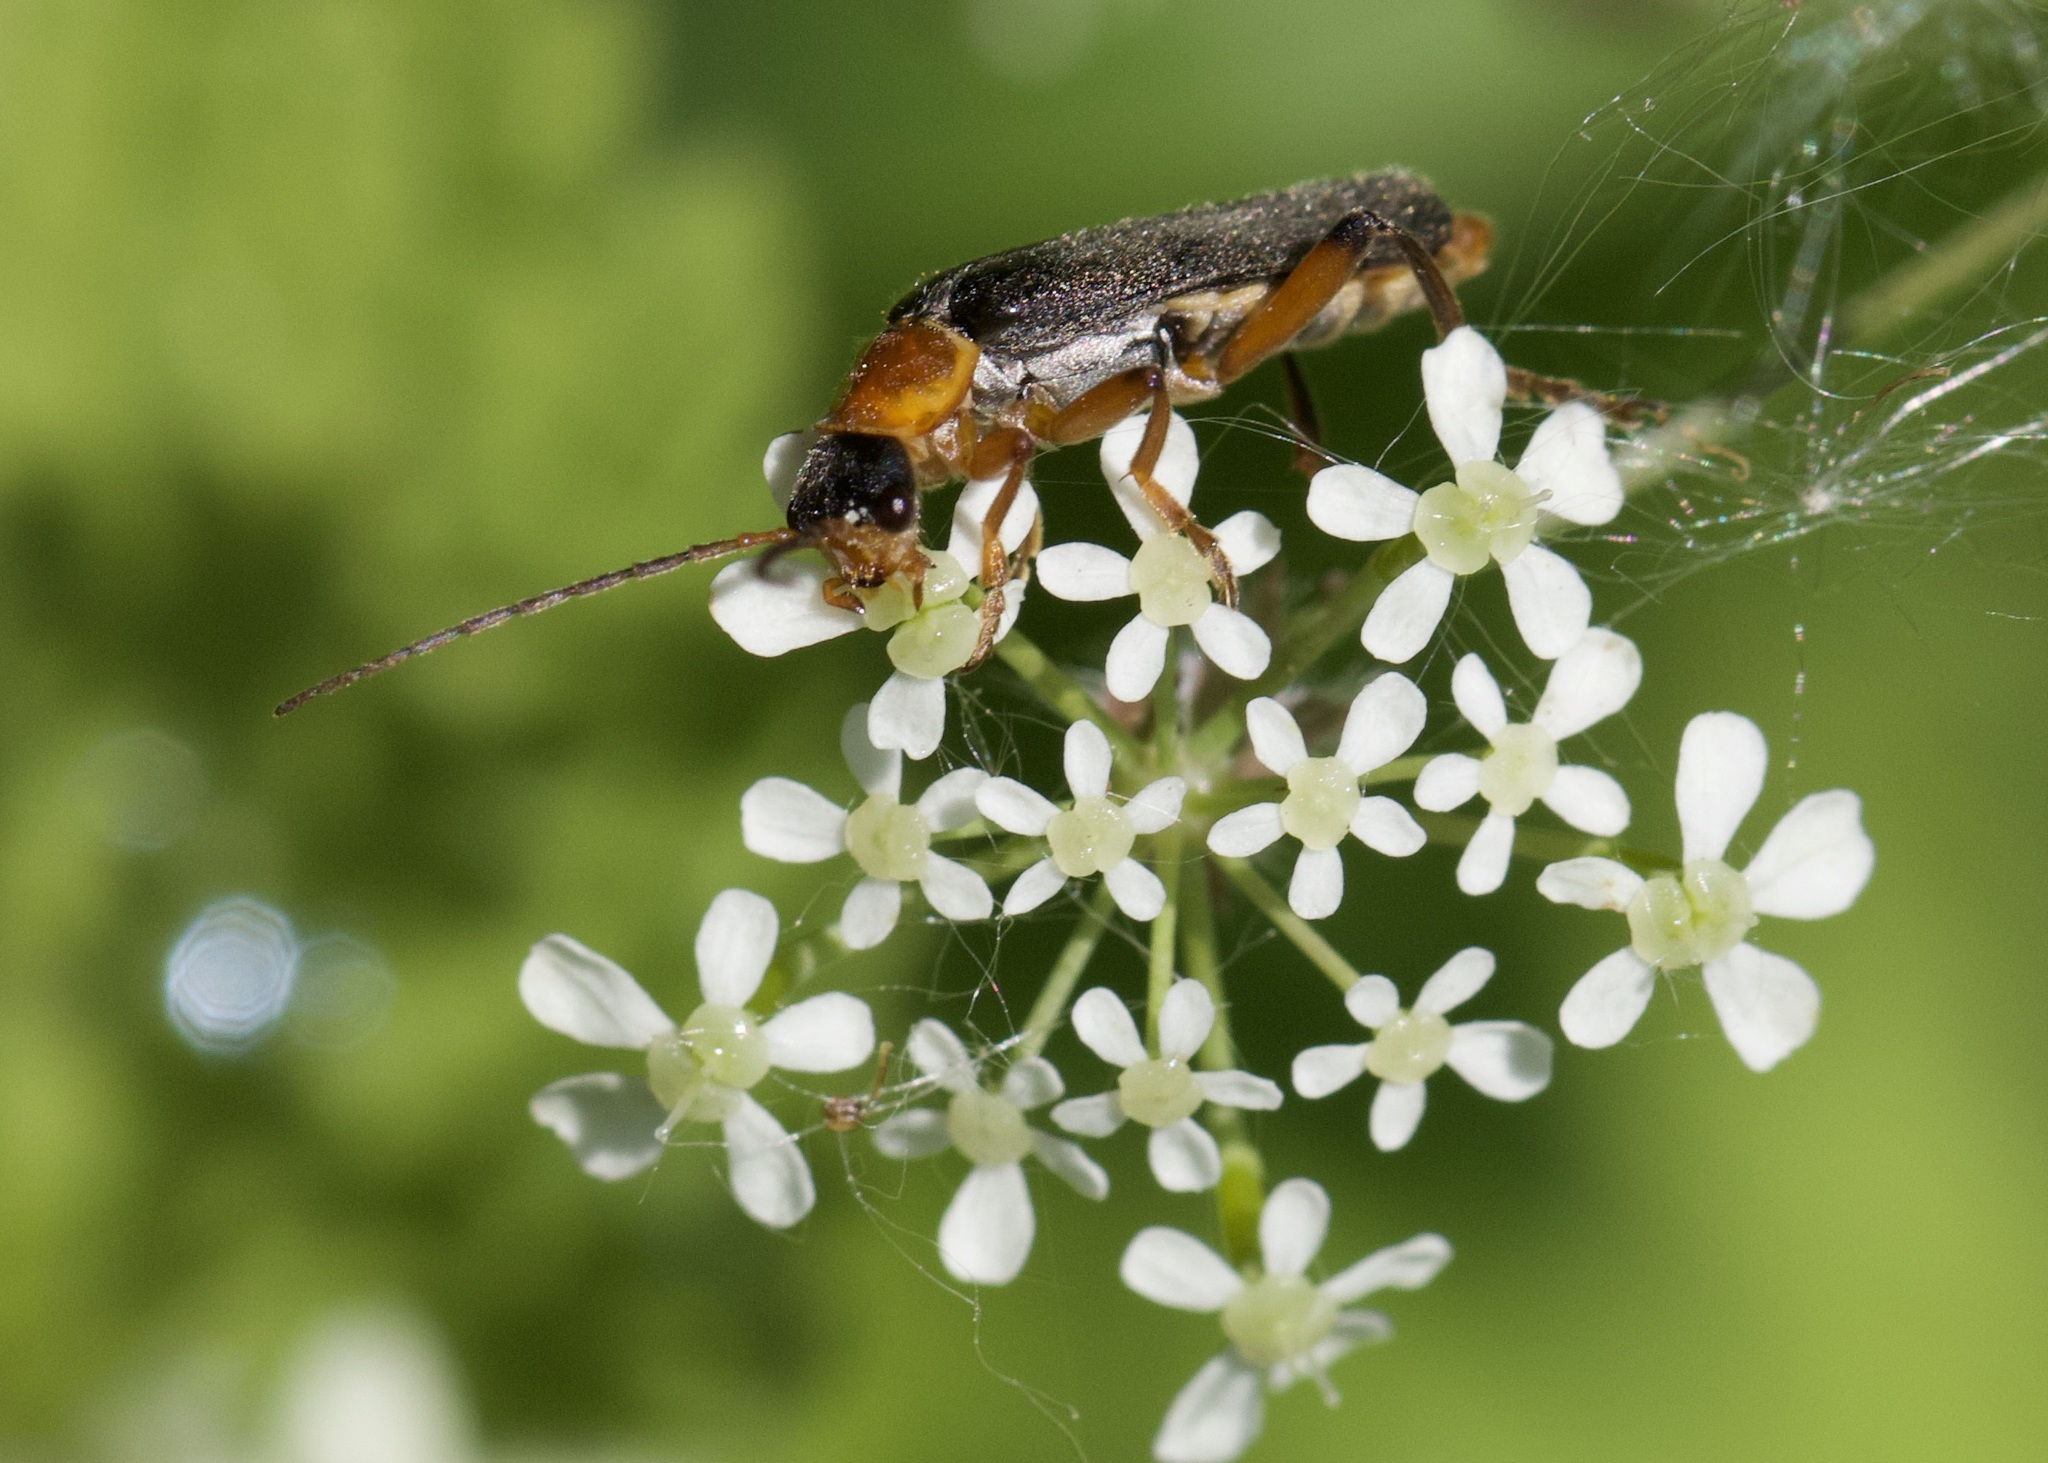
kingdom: Animalia
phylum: Arthropoda
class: Insecta
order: Coleoptera
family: Cantharidae
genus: Cantharis
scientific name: Cantharis nigricans
